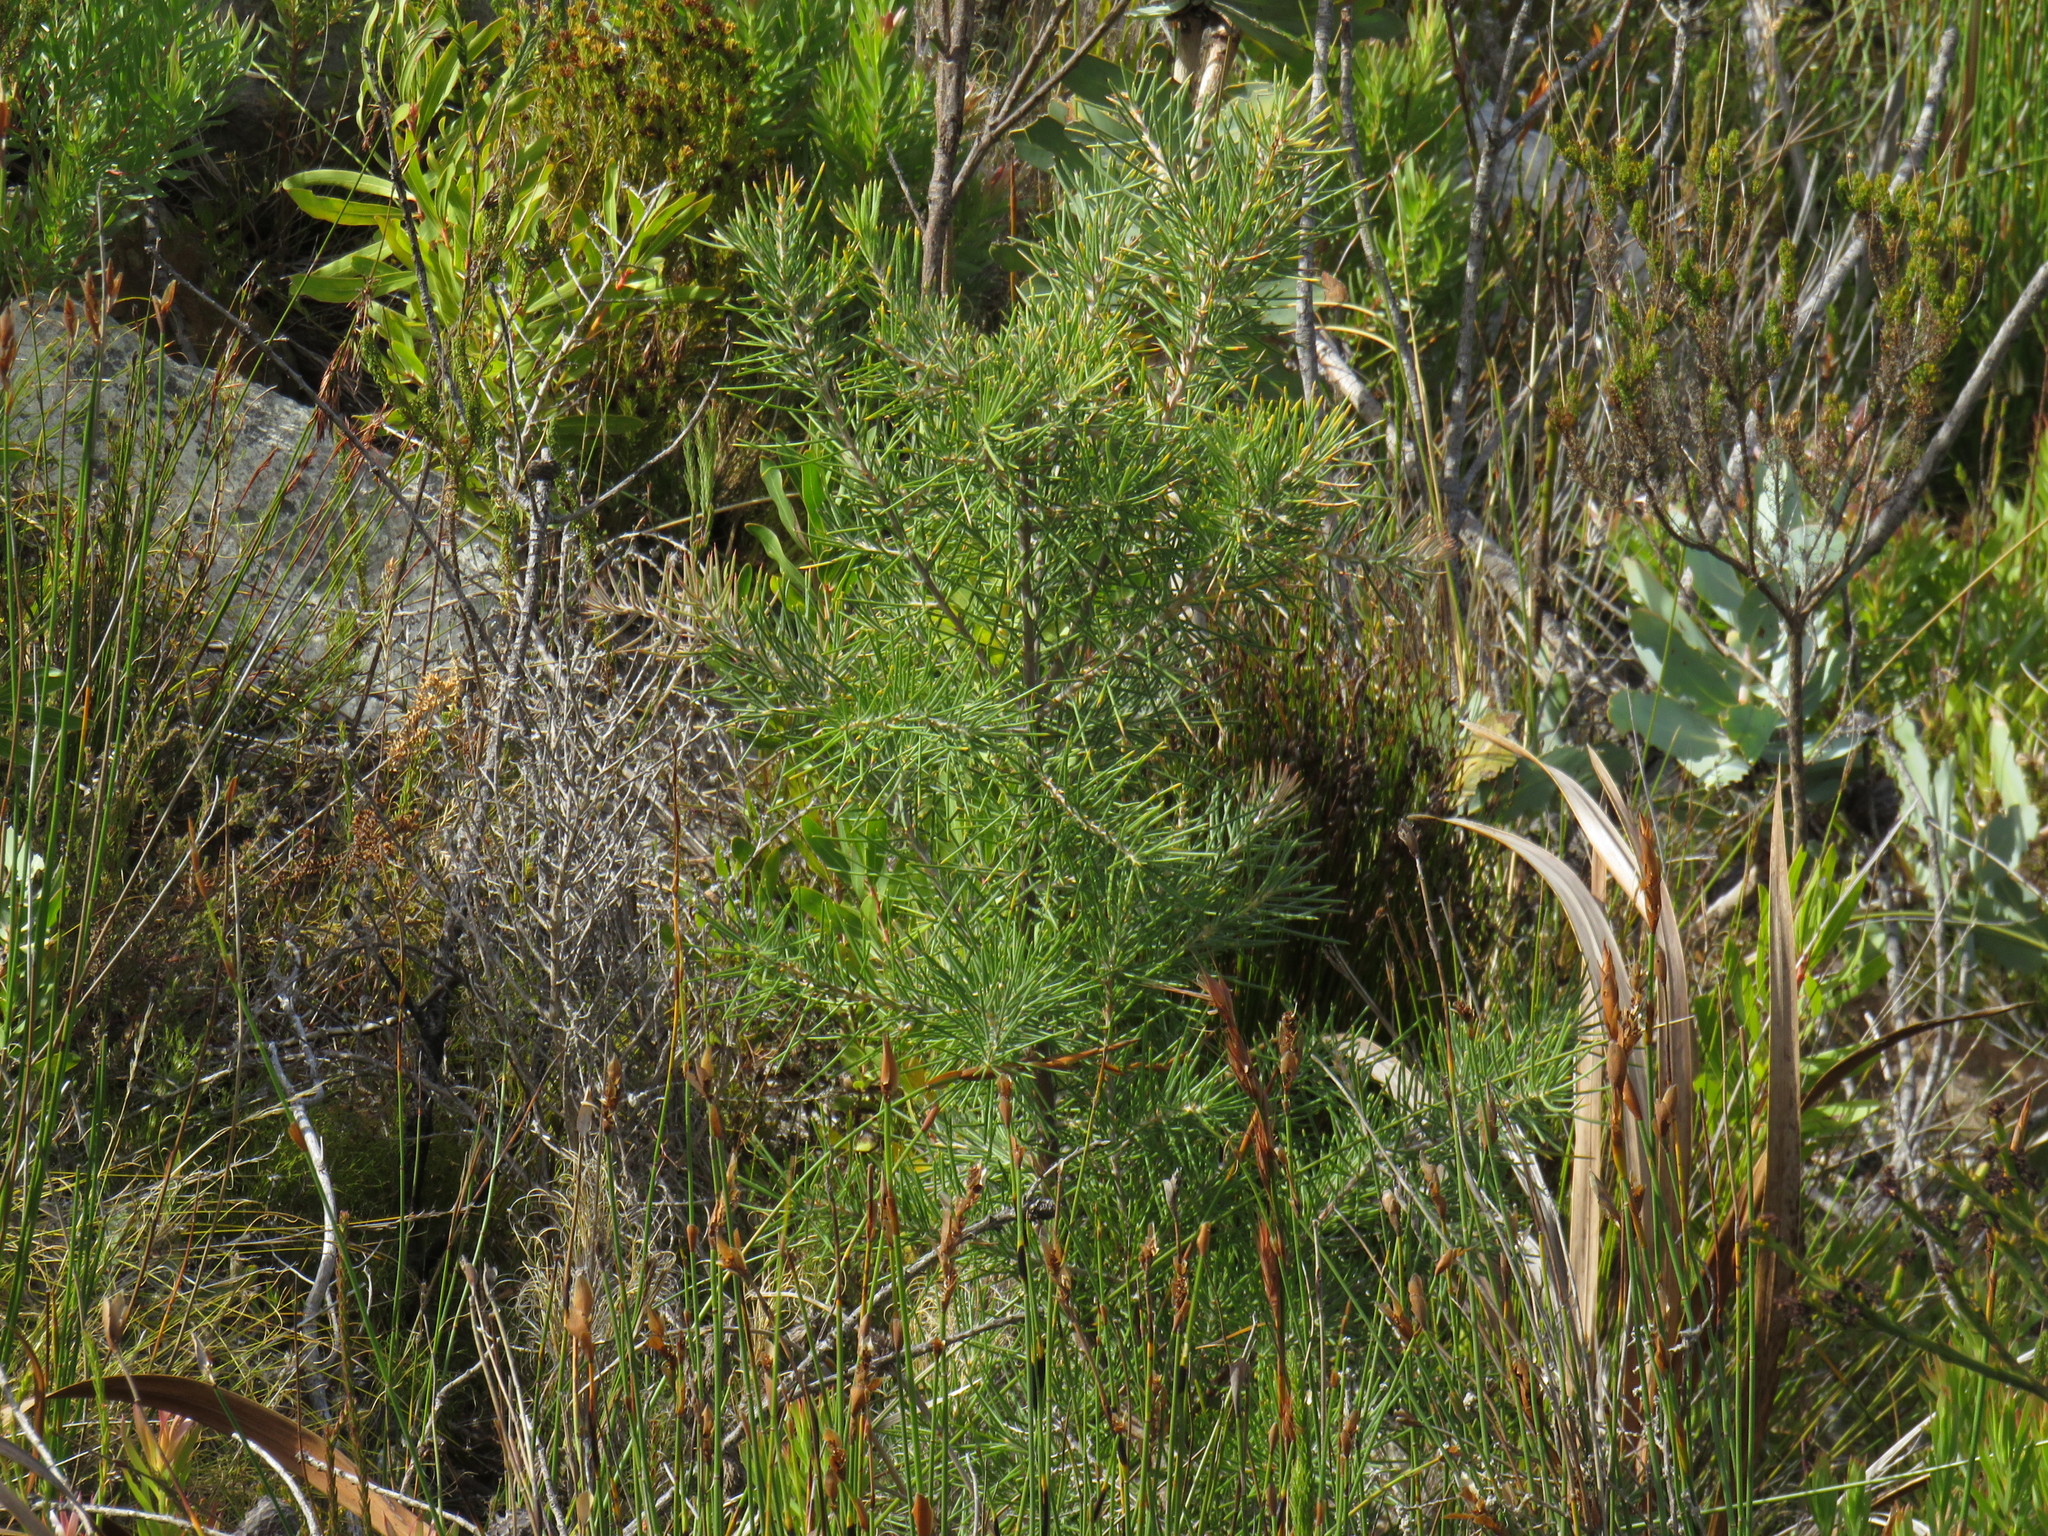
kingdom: Plantae
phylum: Tracheophyta
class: Magnoliopsida
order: Proteales
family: Proteaceae
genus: Hakea
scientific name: Hakea gibbosa
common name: Rock hakea
